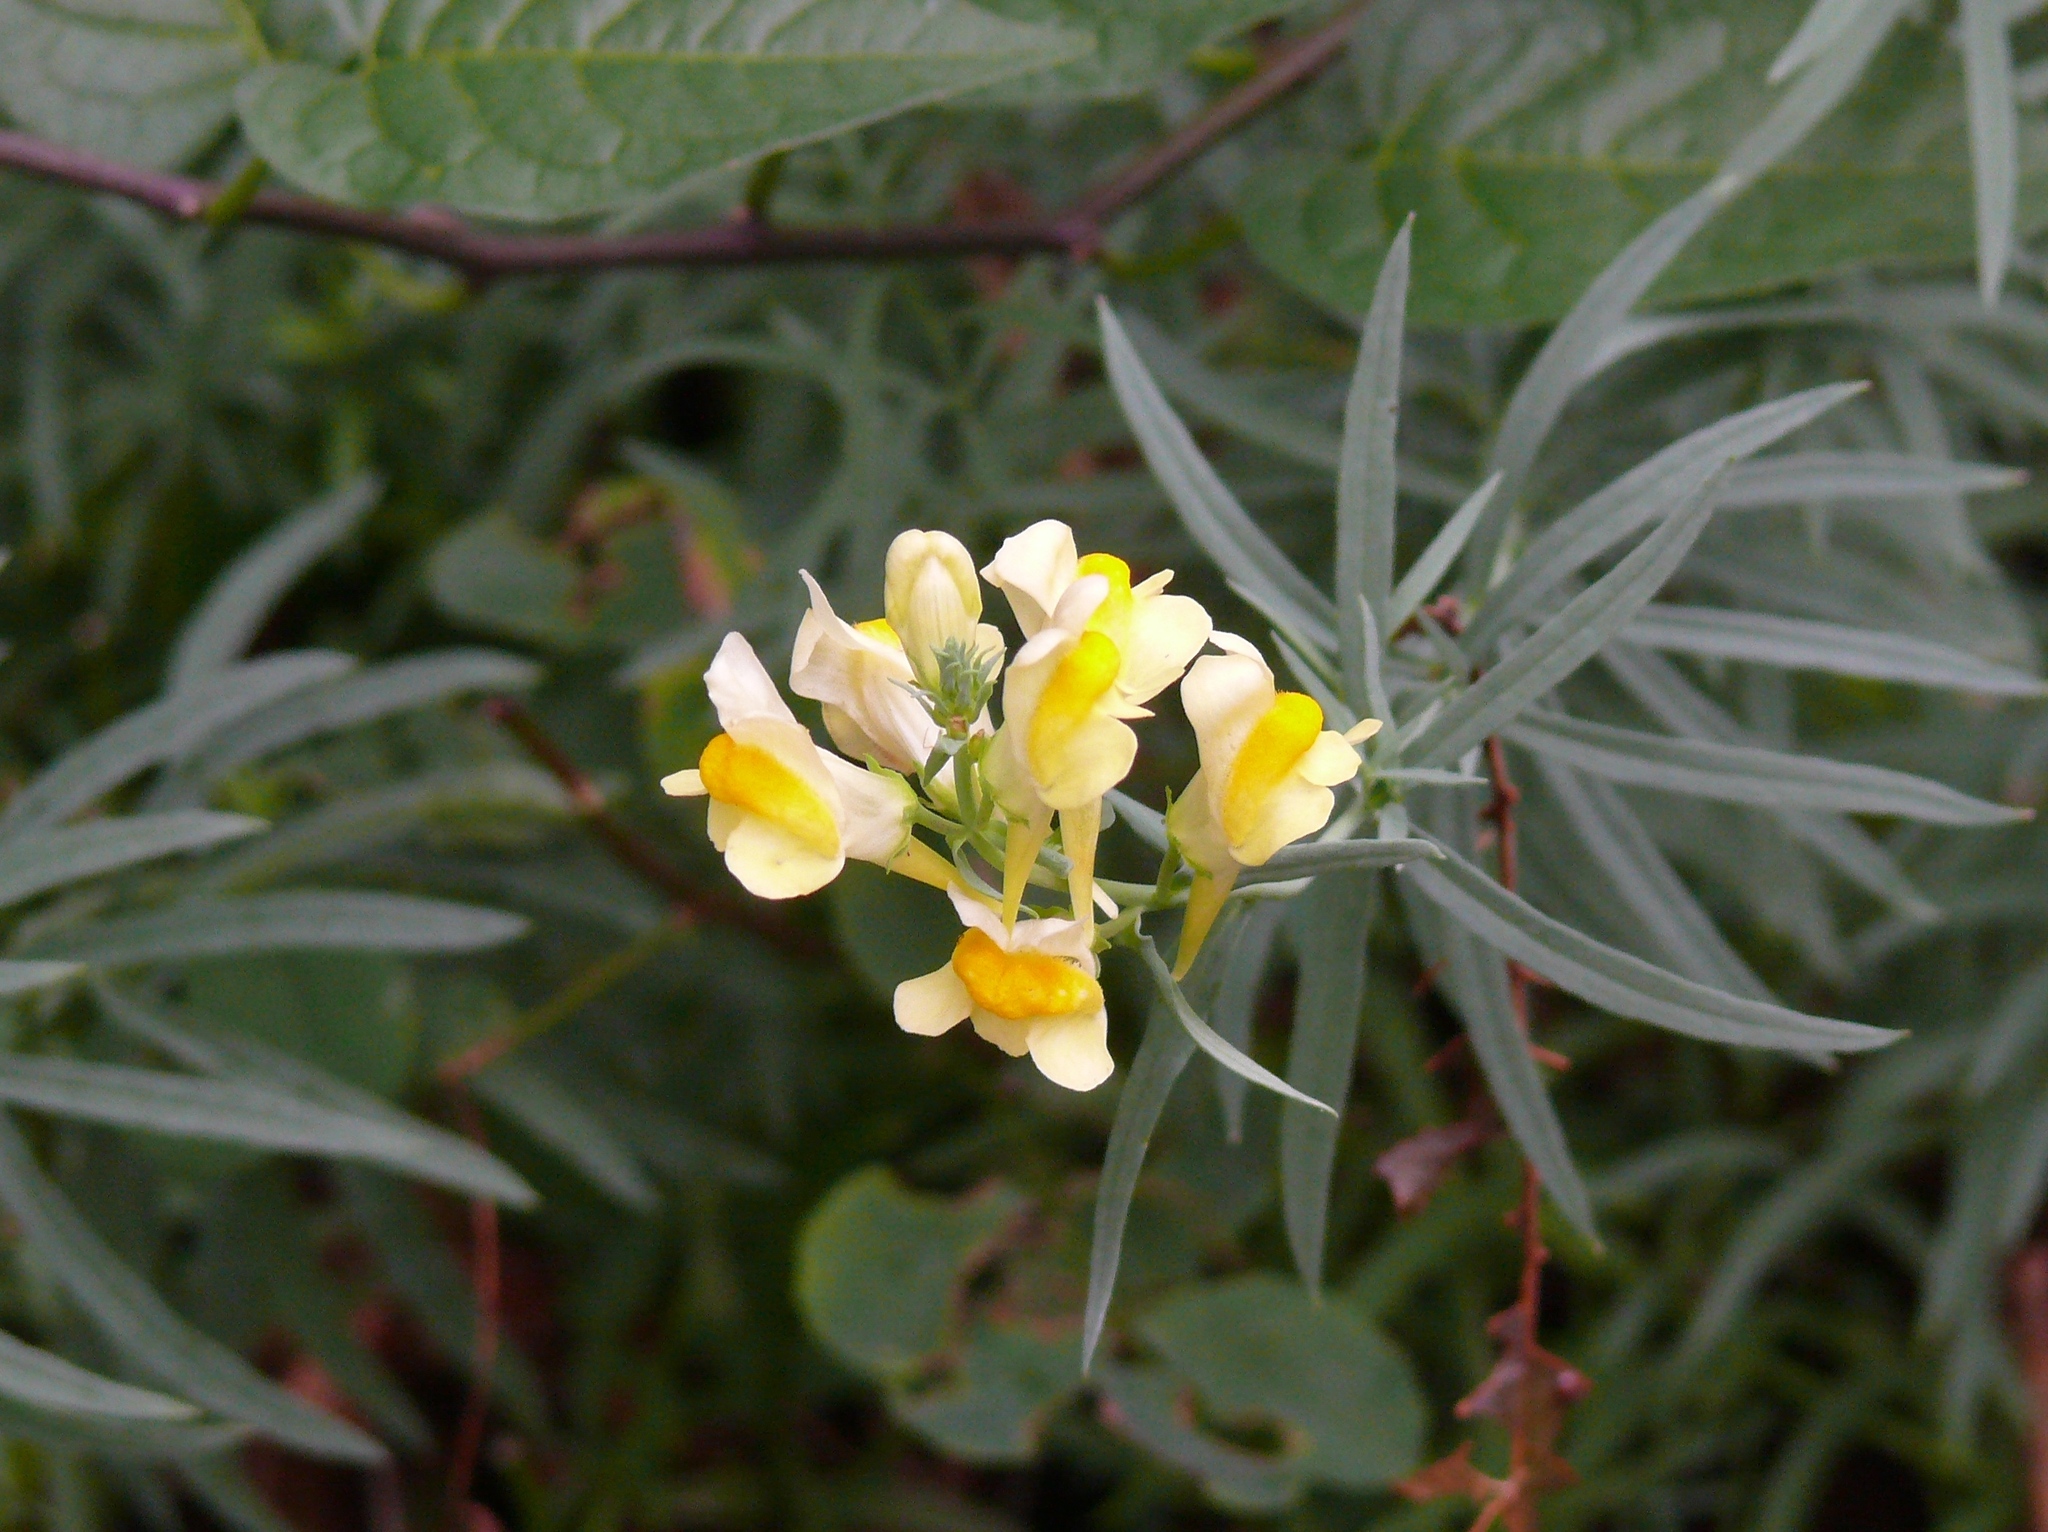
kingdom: Plantae
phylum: Tracheophyta
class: Magnoliopsida
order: Lamiales
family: Plantaginaceae
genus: Linaria
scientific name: Linaria vulgaris
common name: Butter and eggs
